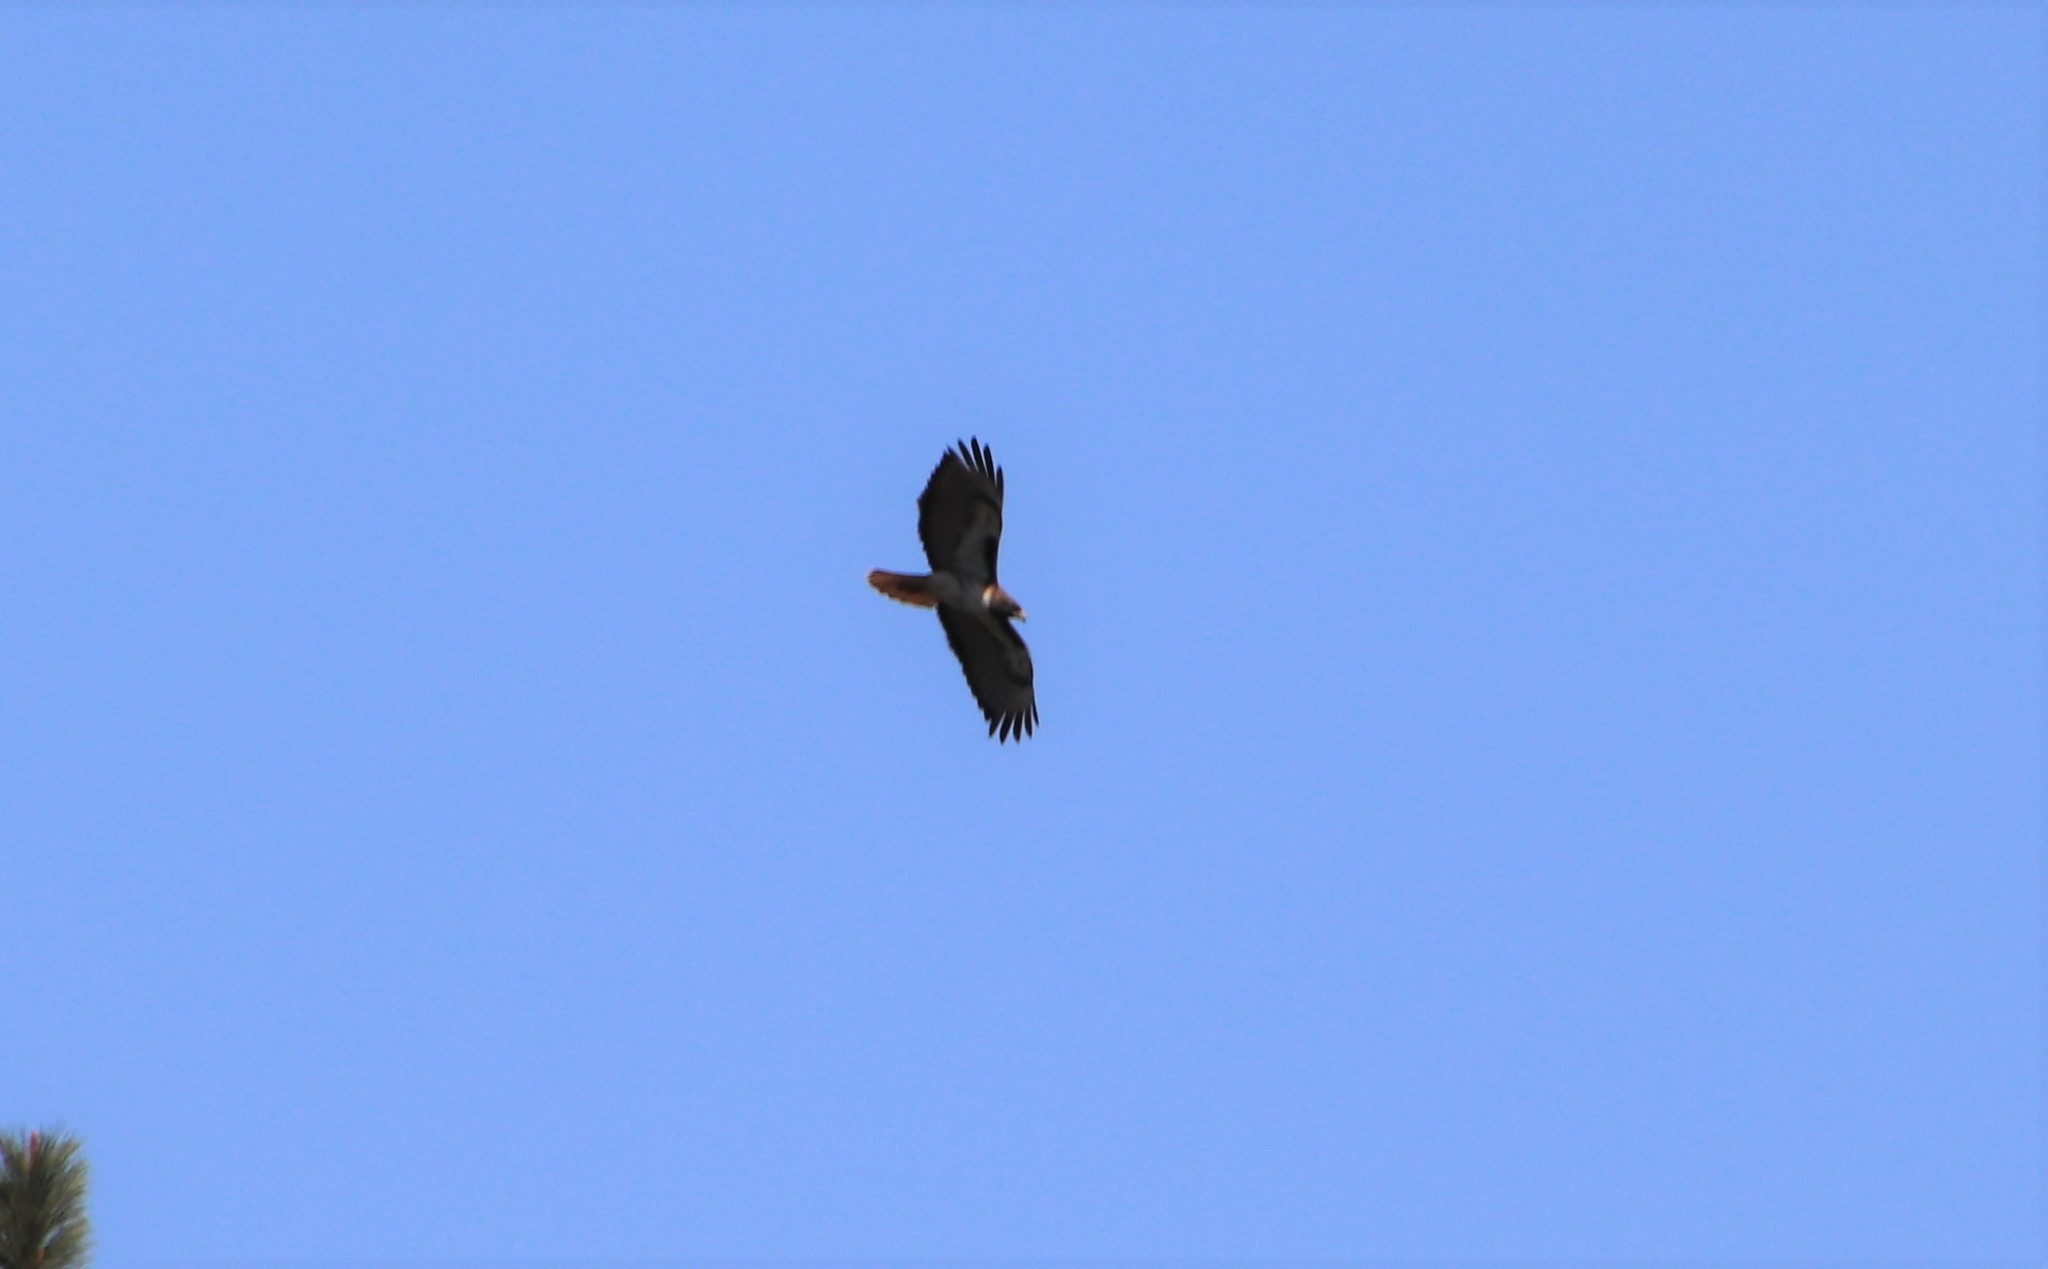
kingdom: Animalia
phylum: Chordata
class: Aves
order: Accipitriformes
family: Accipitridae
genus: Buteo
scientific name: Buteo jamaicensis
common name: Red-tailed hawk
